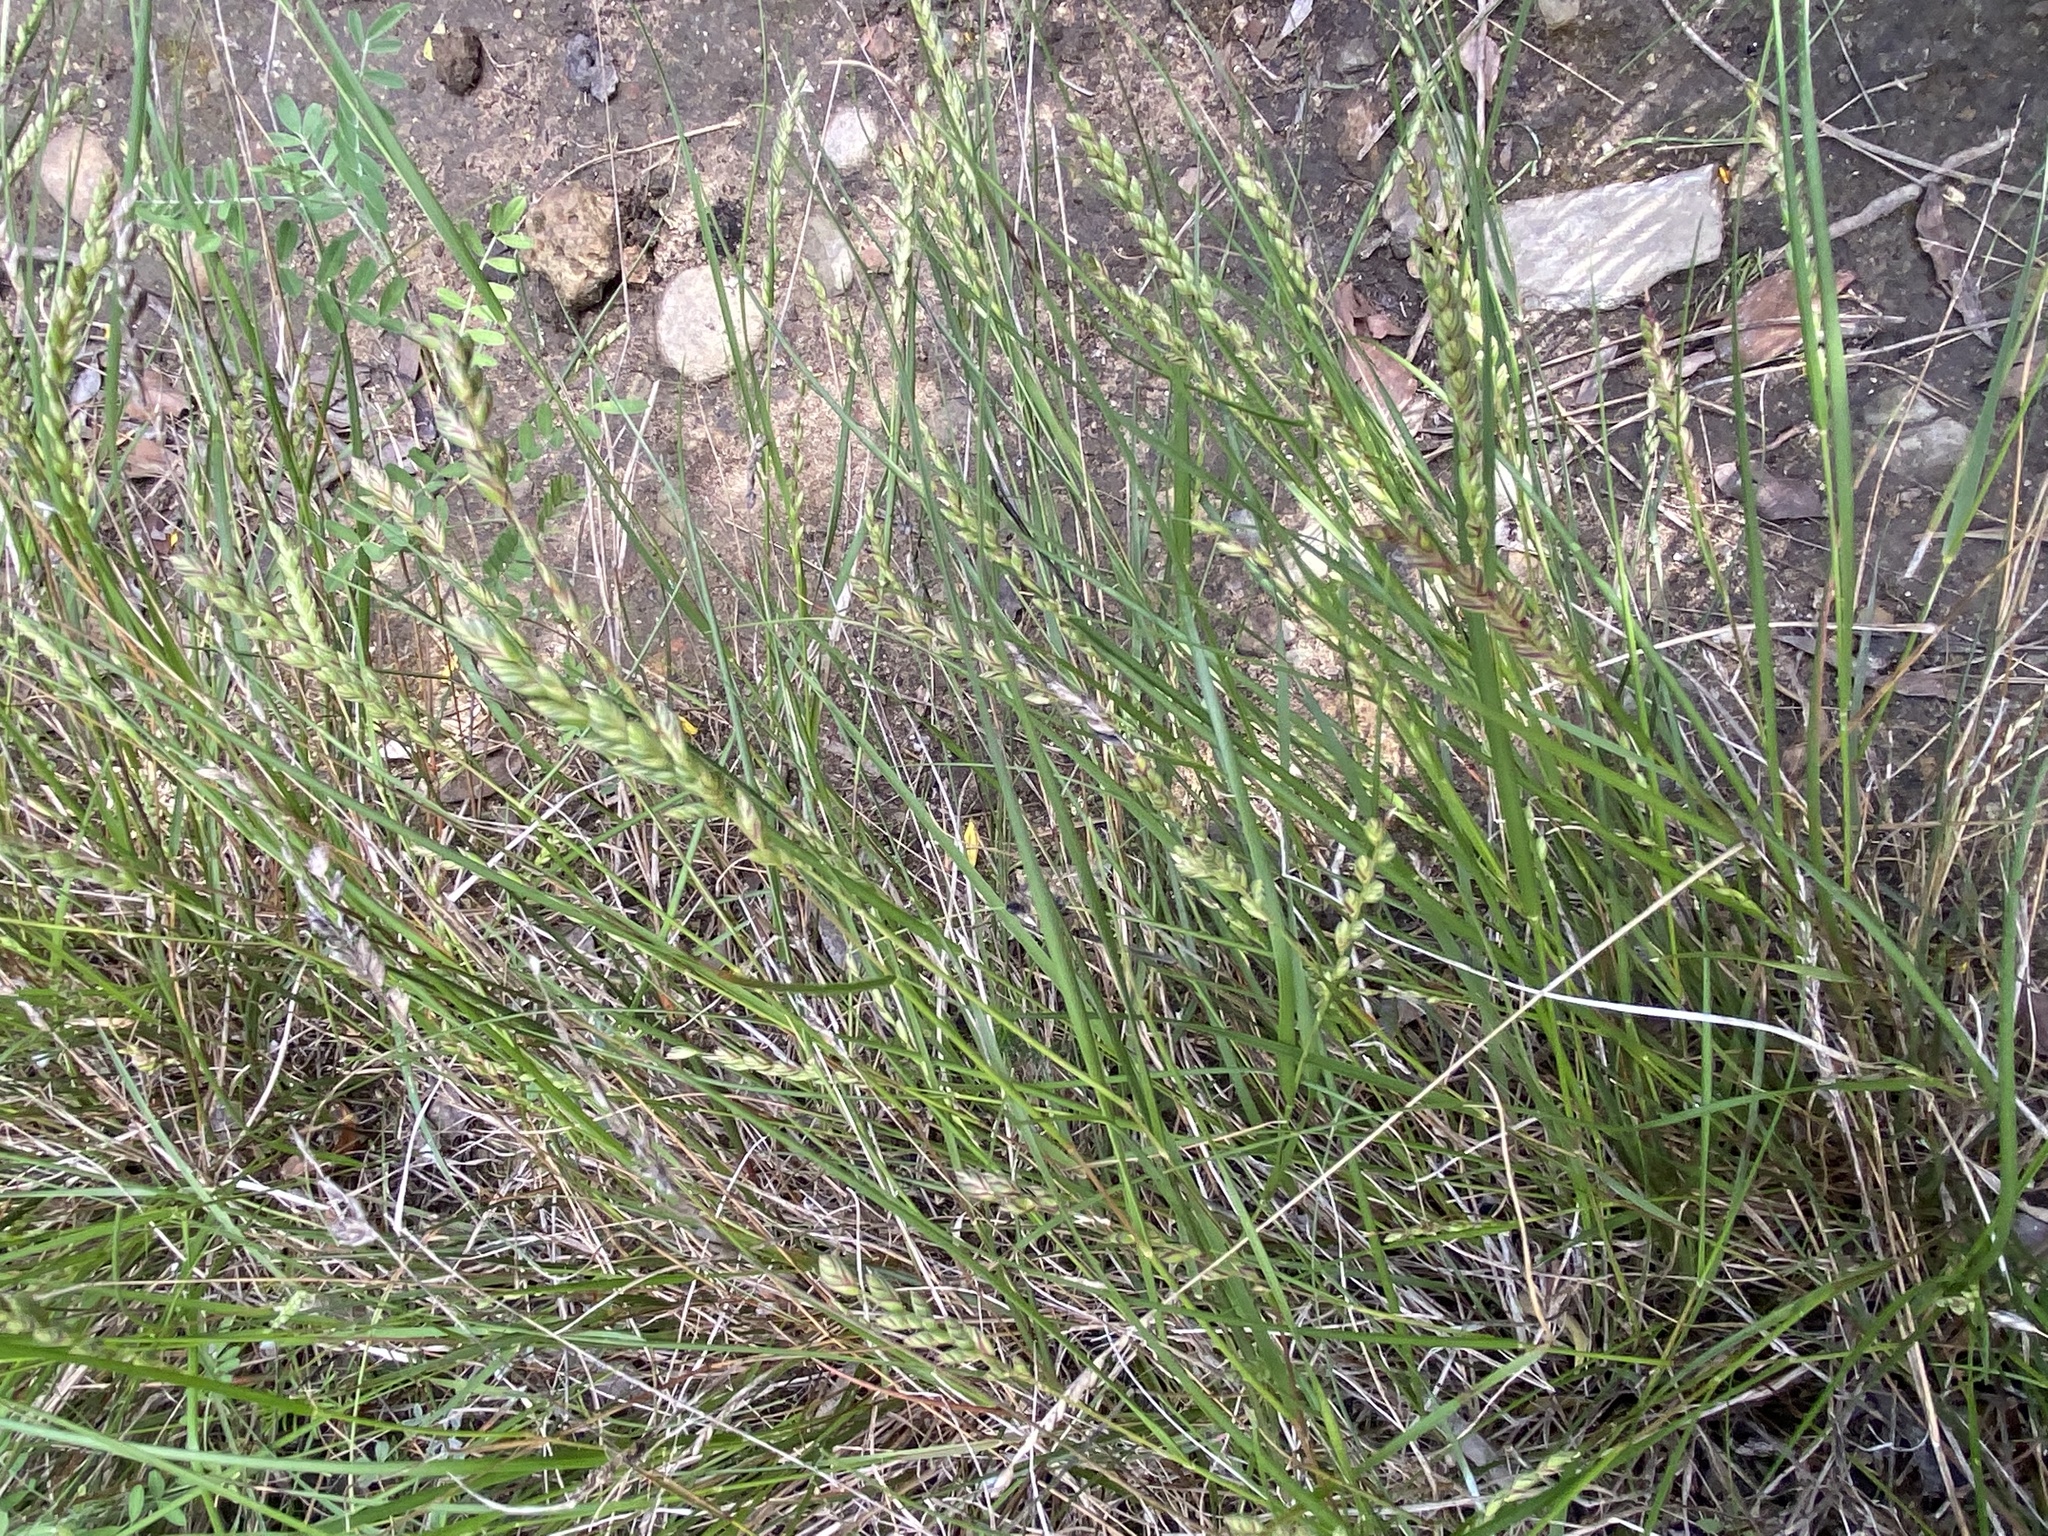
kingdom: Plantae
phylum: Tracheophyta
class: Liliopsida
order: Poales
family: Poaceae
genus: Tribolium
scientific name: Tribolium uniolae
